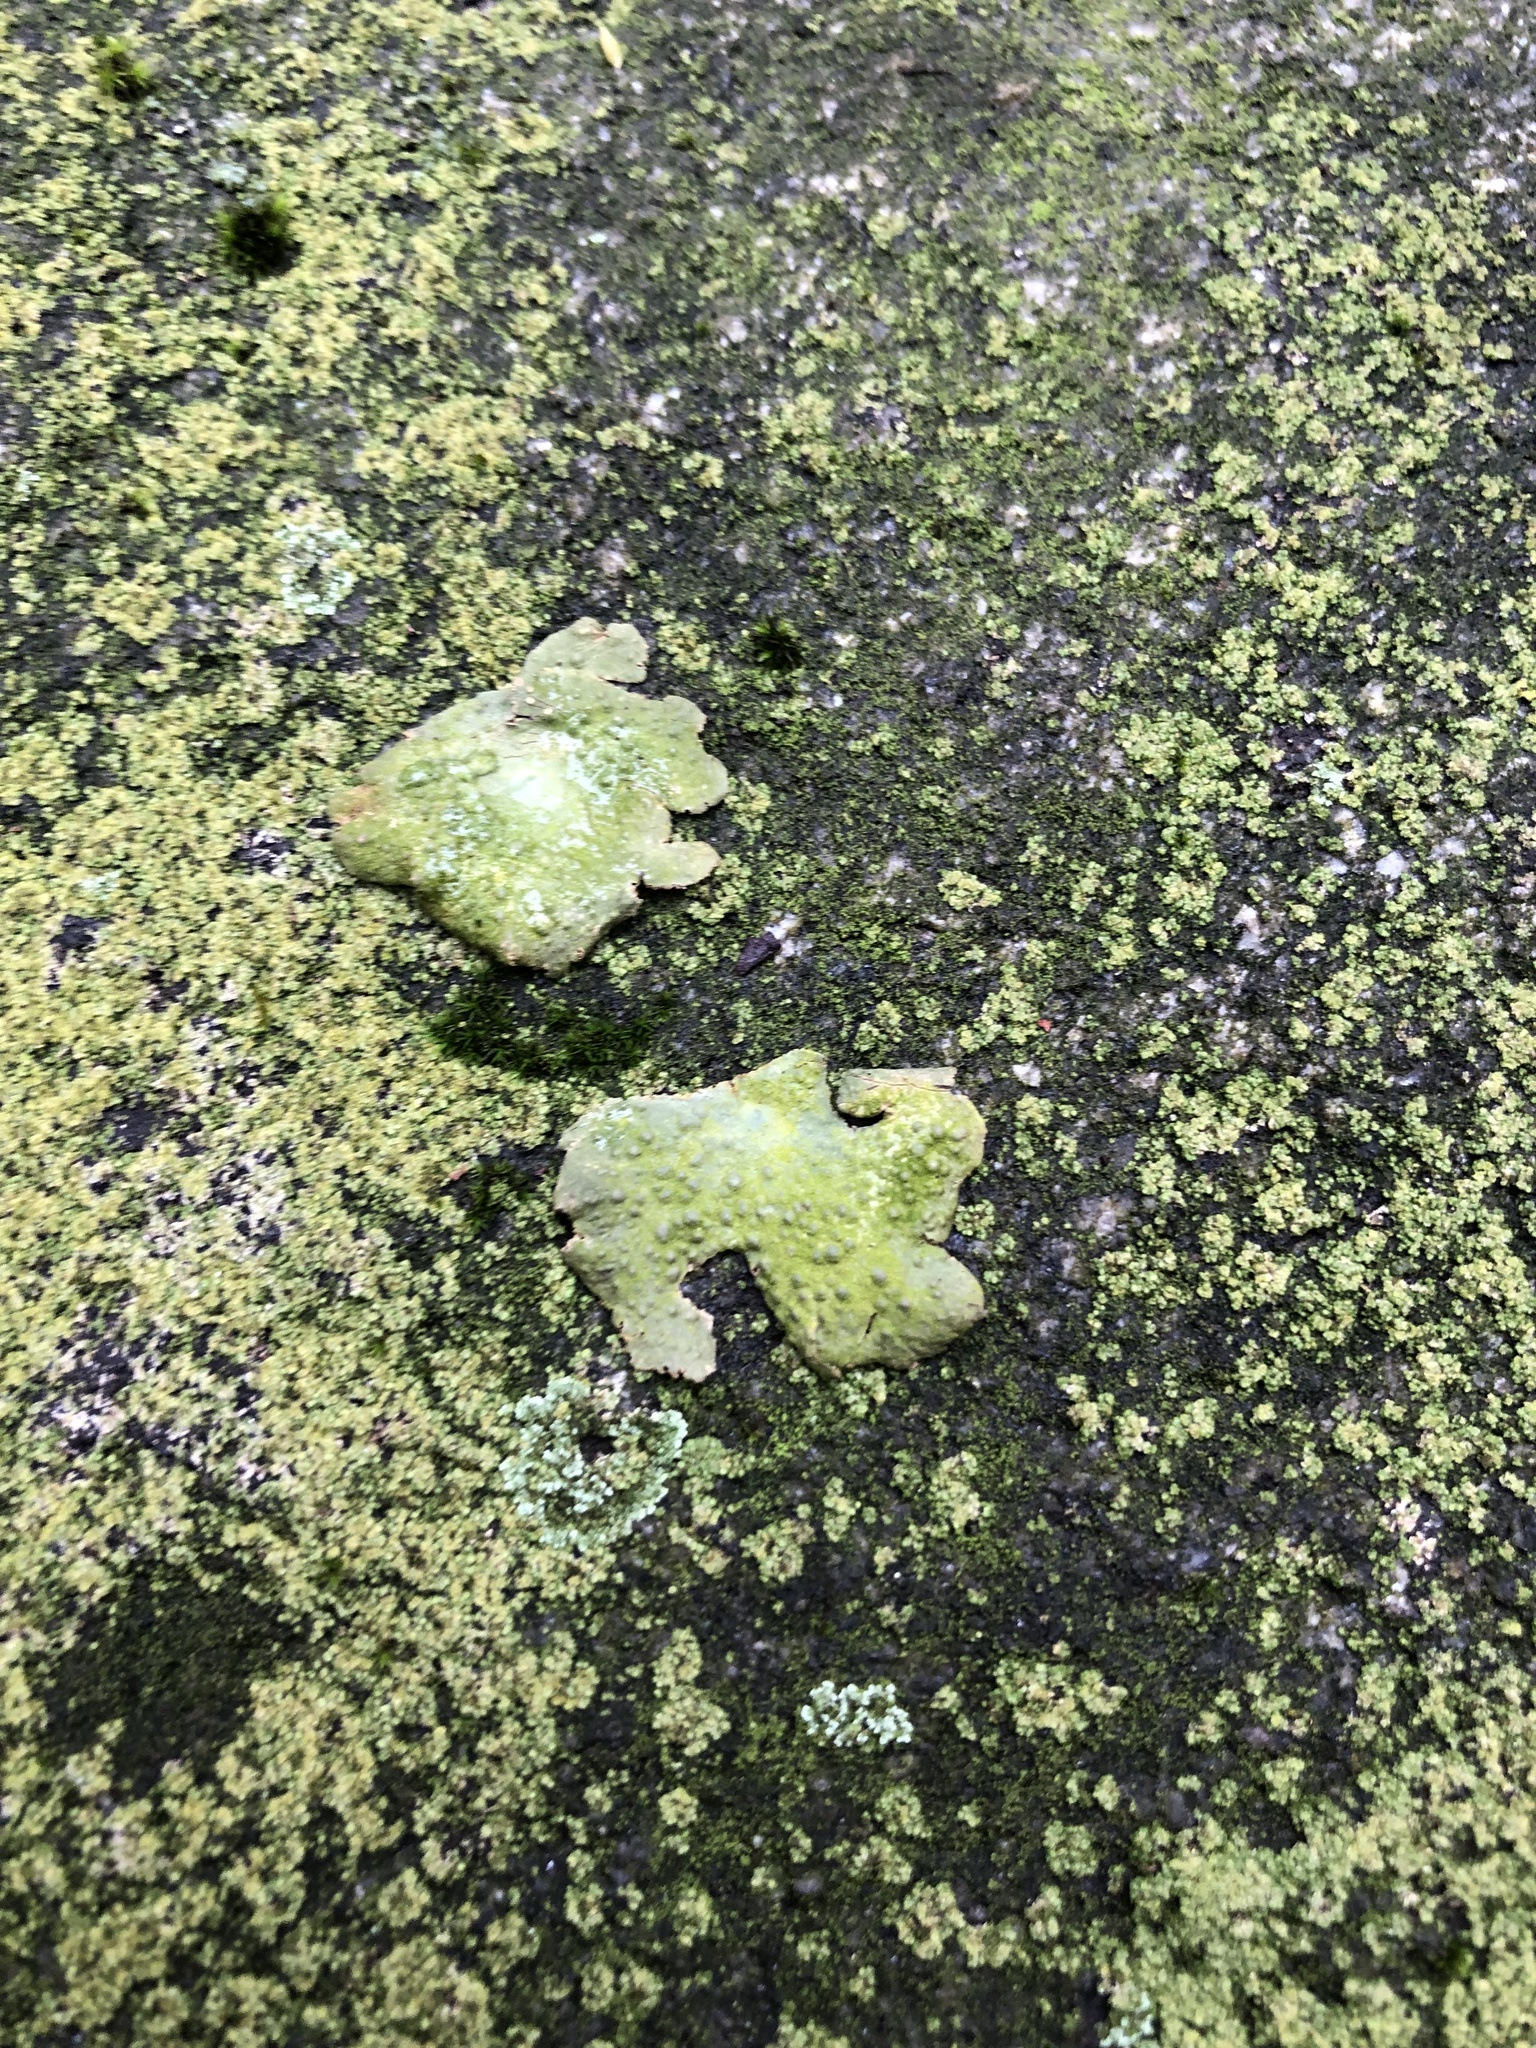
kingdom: Fungi
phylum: Ascomycota
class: Lecanoromycetes
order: Umbilicariales
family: Umbilicariaceae
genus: Lasallia
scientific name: Lasallia papulosa
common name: Common toadskin lichen
